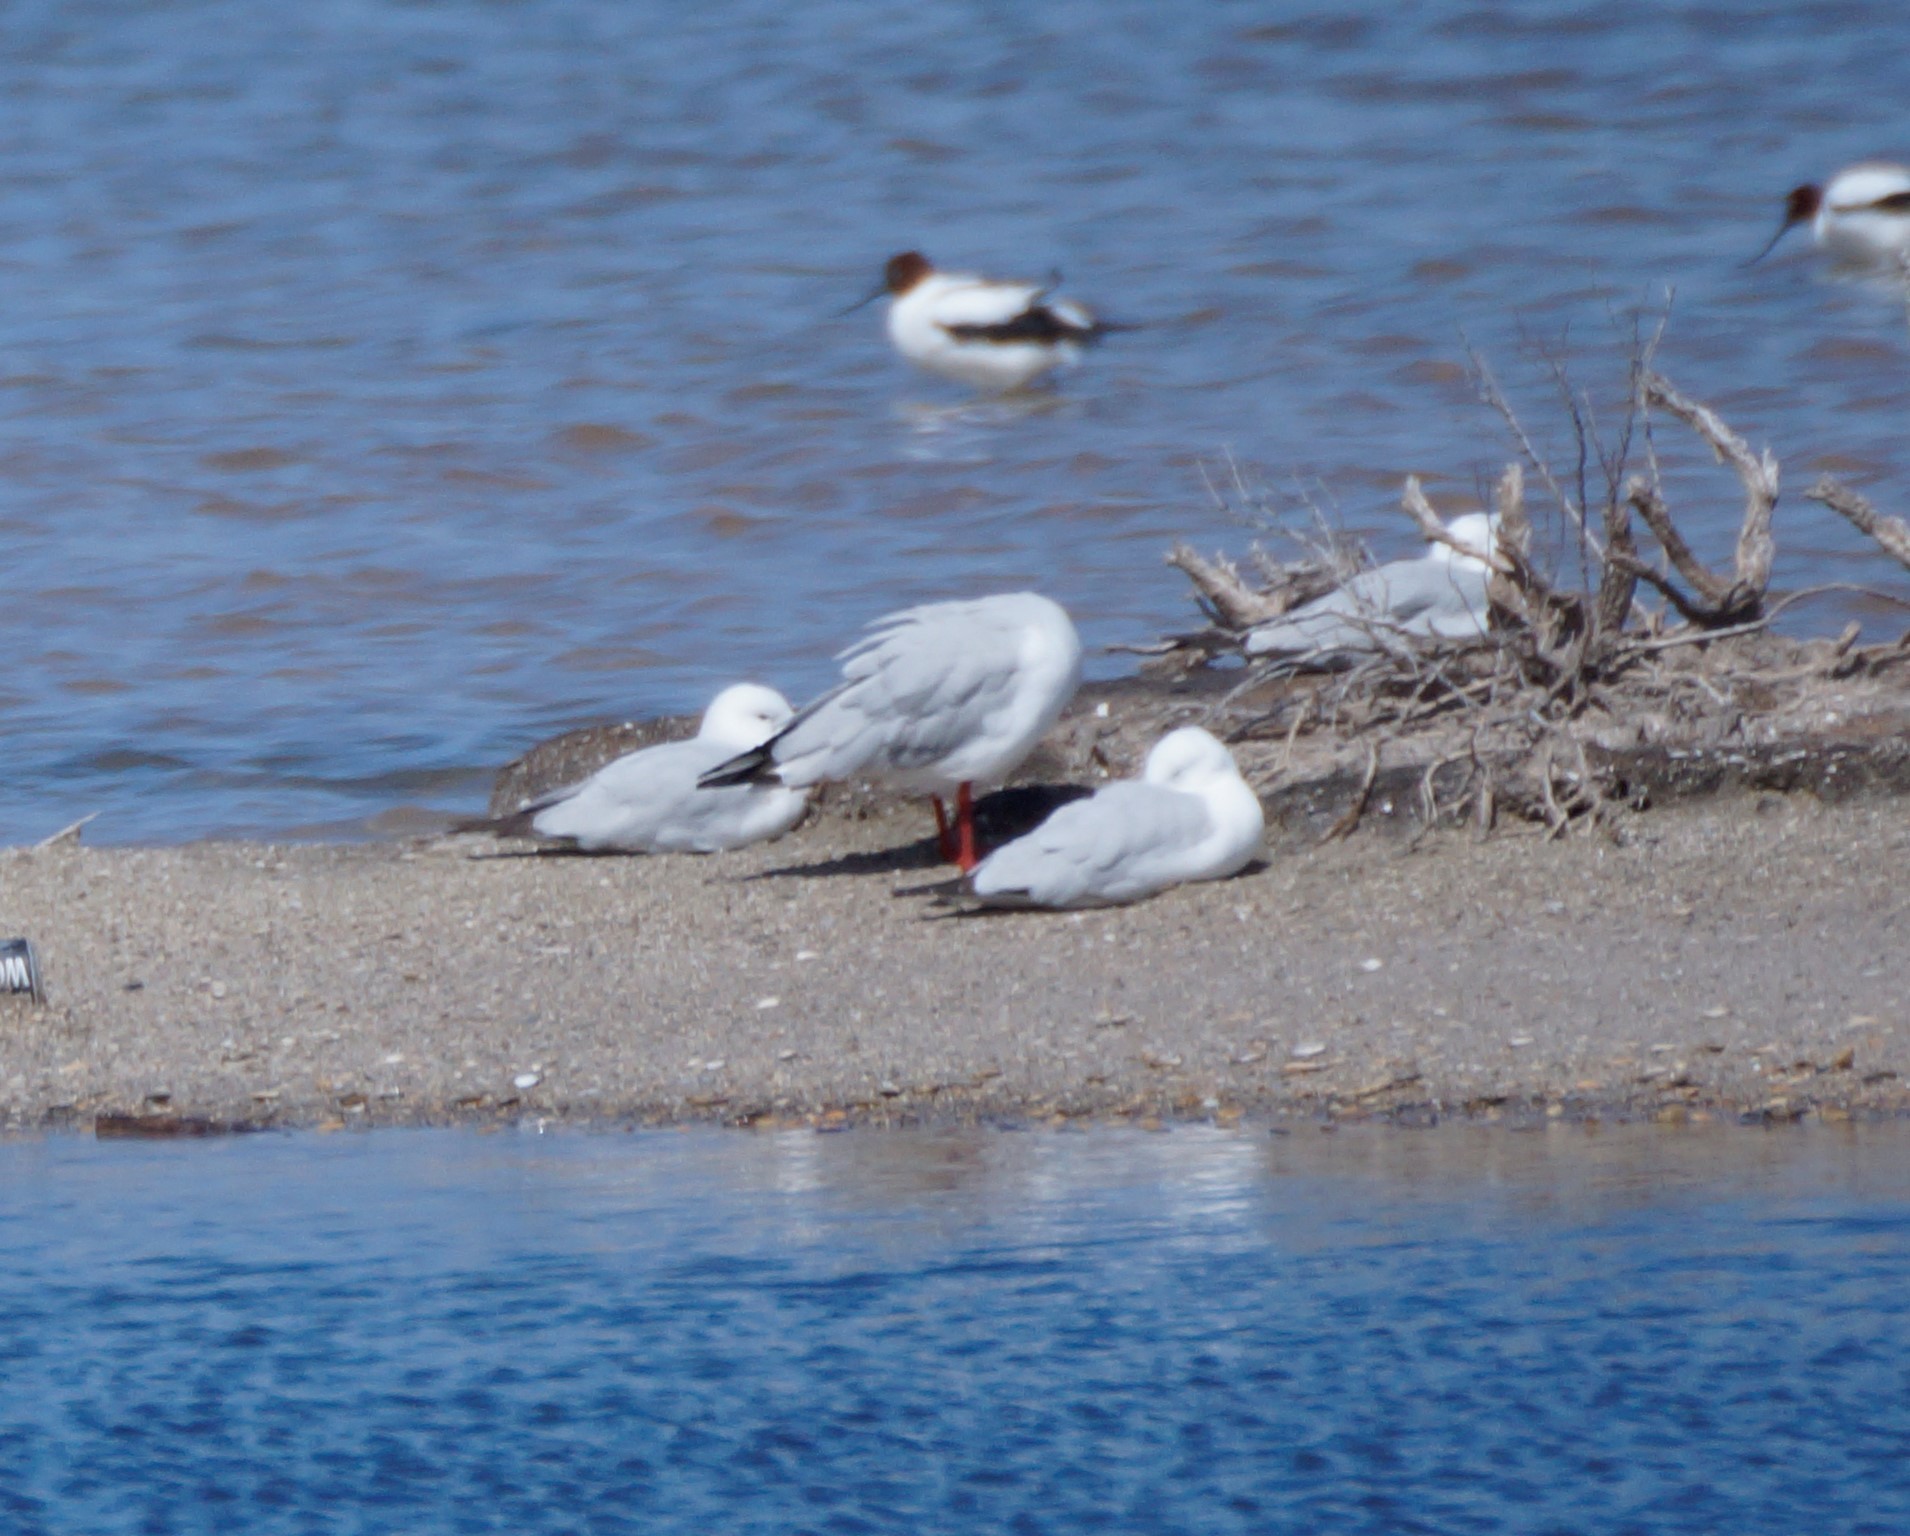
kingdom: Animalia
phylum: Chordata
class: Aves
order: Charadriiformes
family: Laridae
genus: Chroicocephalus
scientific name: Chroicocephalus novaehollandiae
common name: Silver gull
